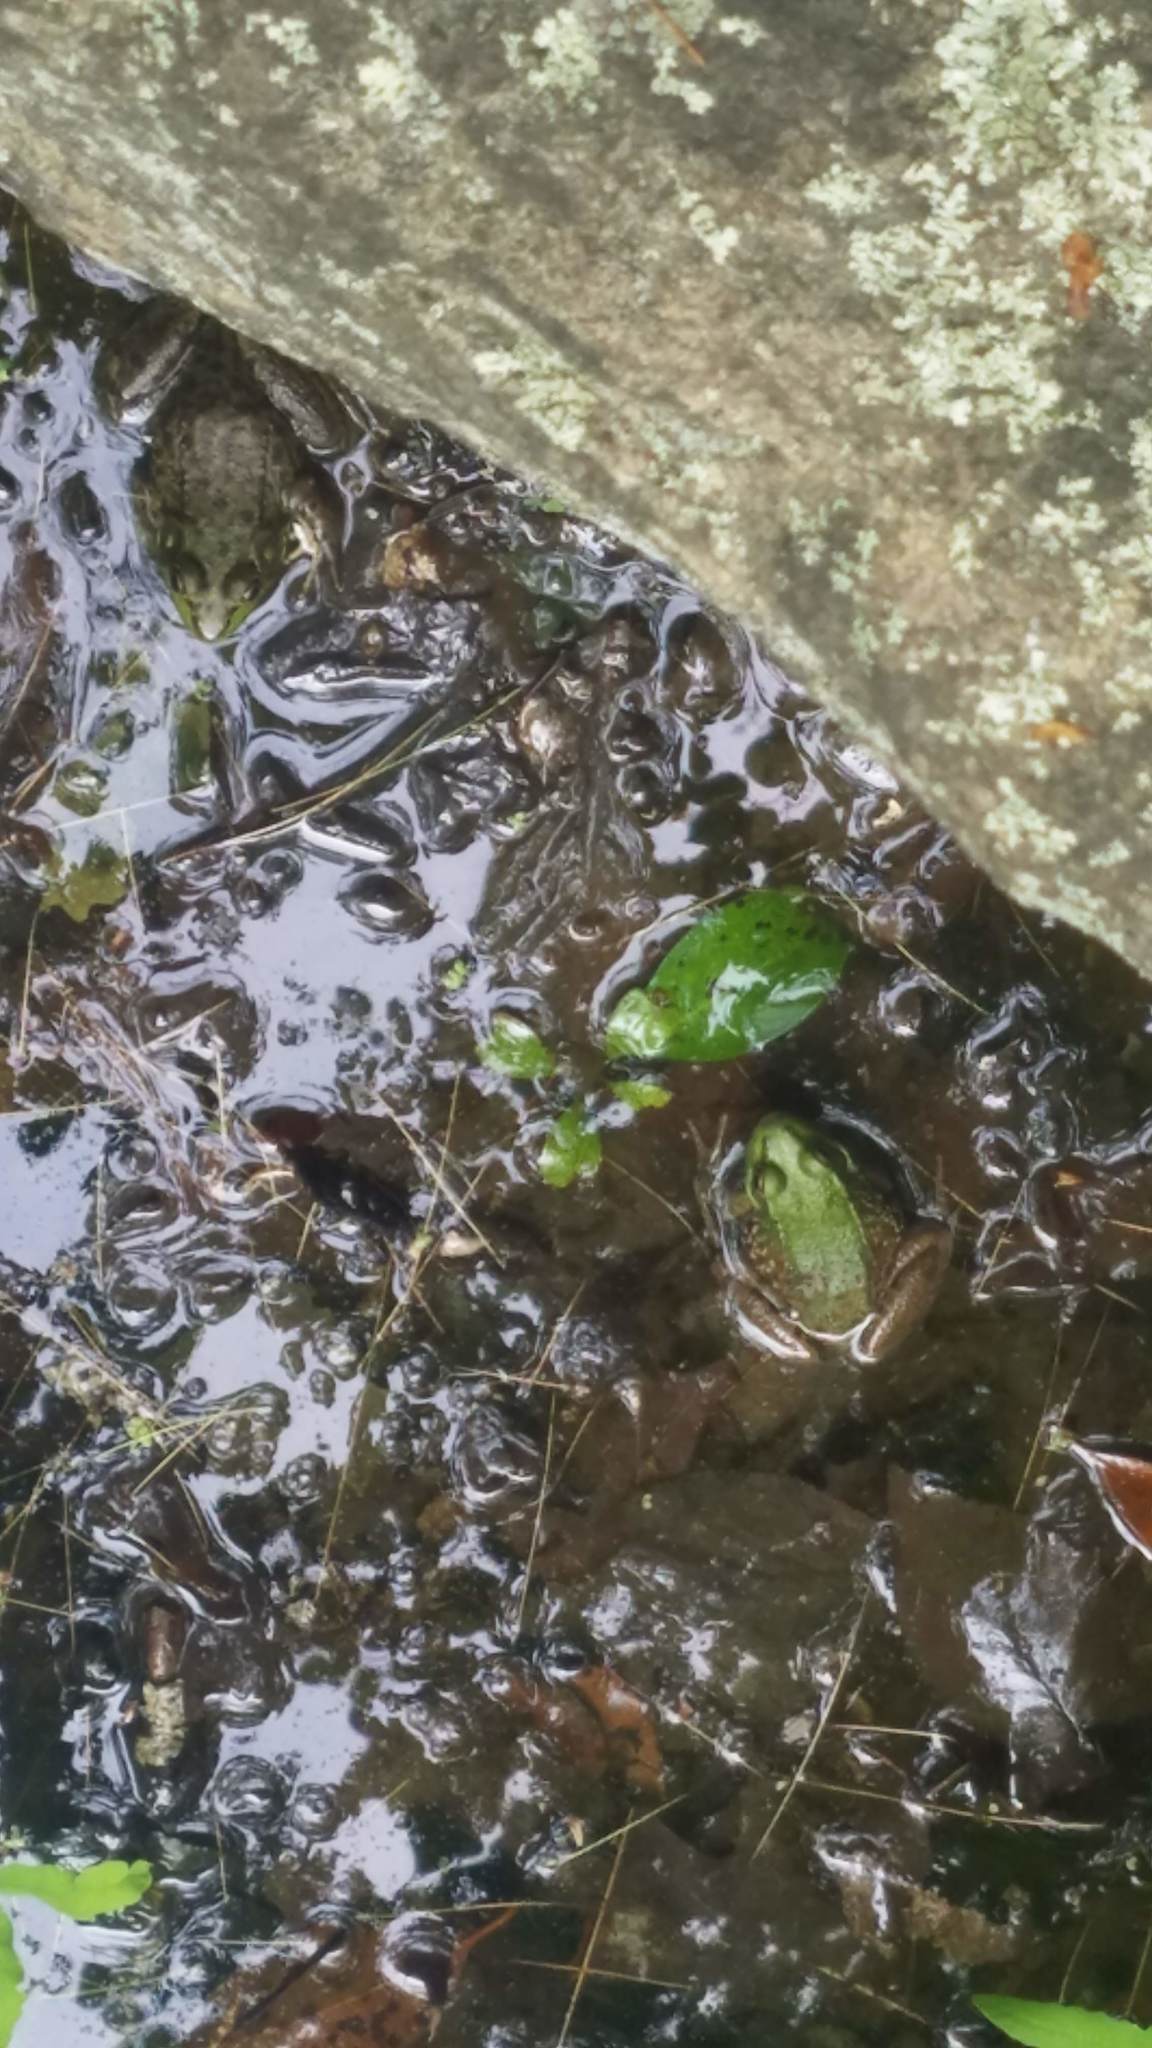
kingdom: Animalia
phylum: Chordata
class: Amphibia
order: Anura
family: Ranidae
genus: Lithobates
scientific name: Lithobates clamitans
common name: Green frog
